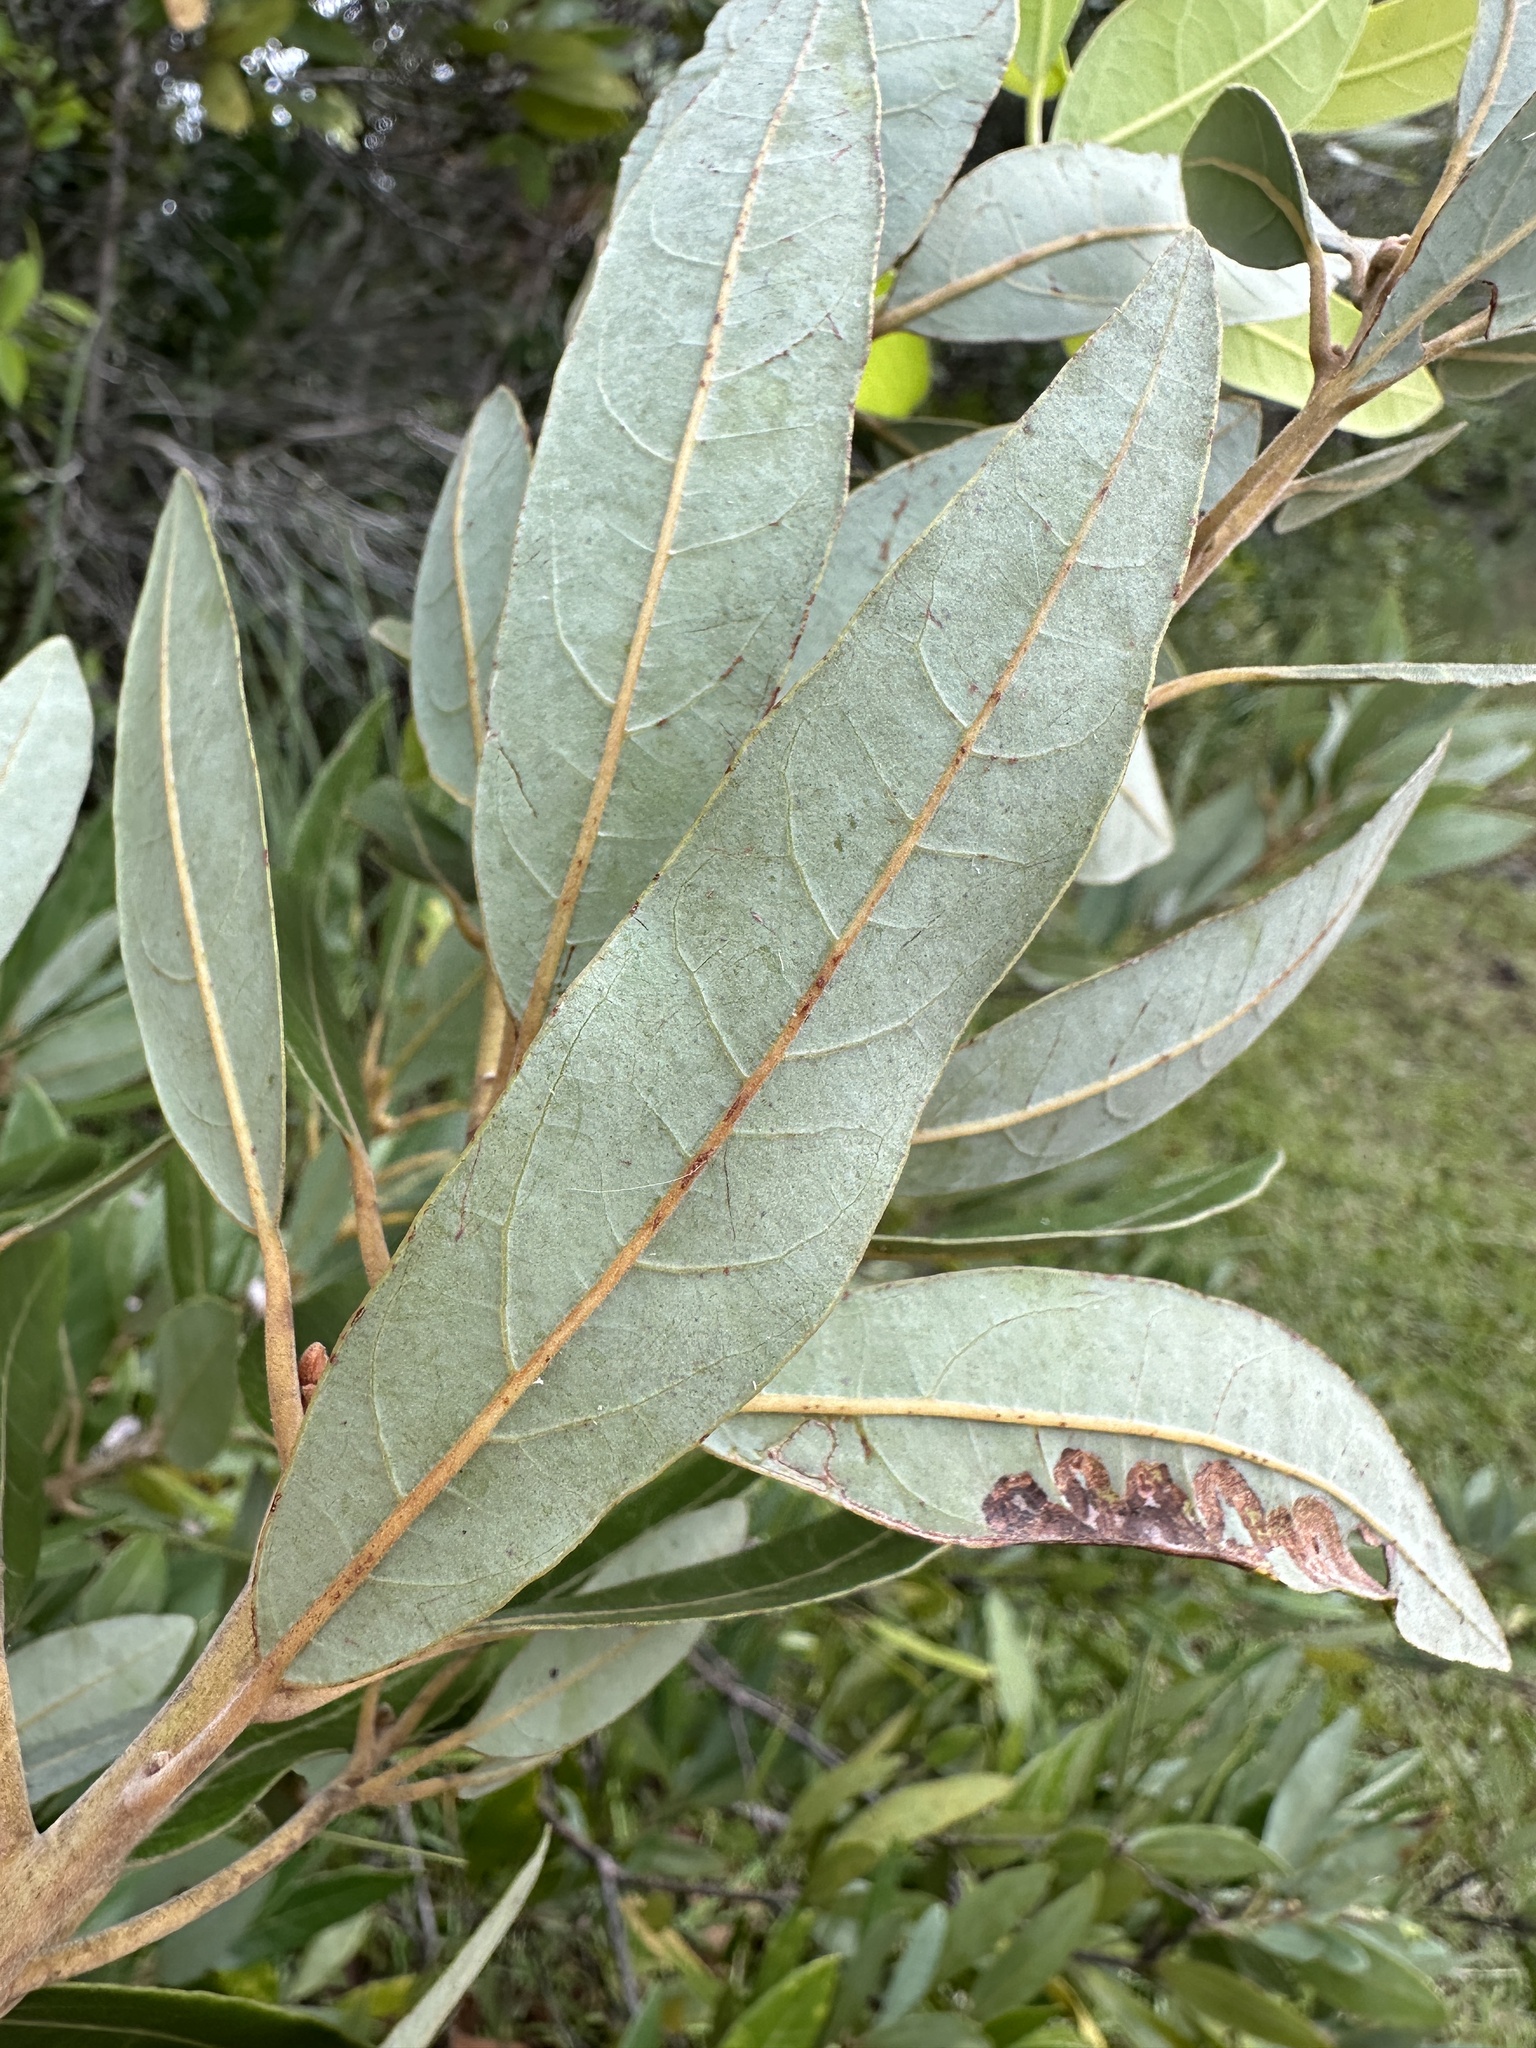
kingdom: Plantae
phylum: Tracheophyta
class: Magnoliopsida
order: Laurales
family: Lauraceae
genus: Persea
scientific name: Persea palustris
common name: Swampbay
